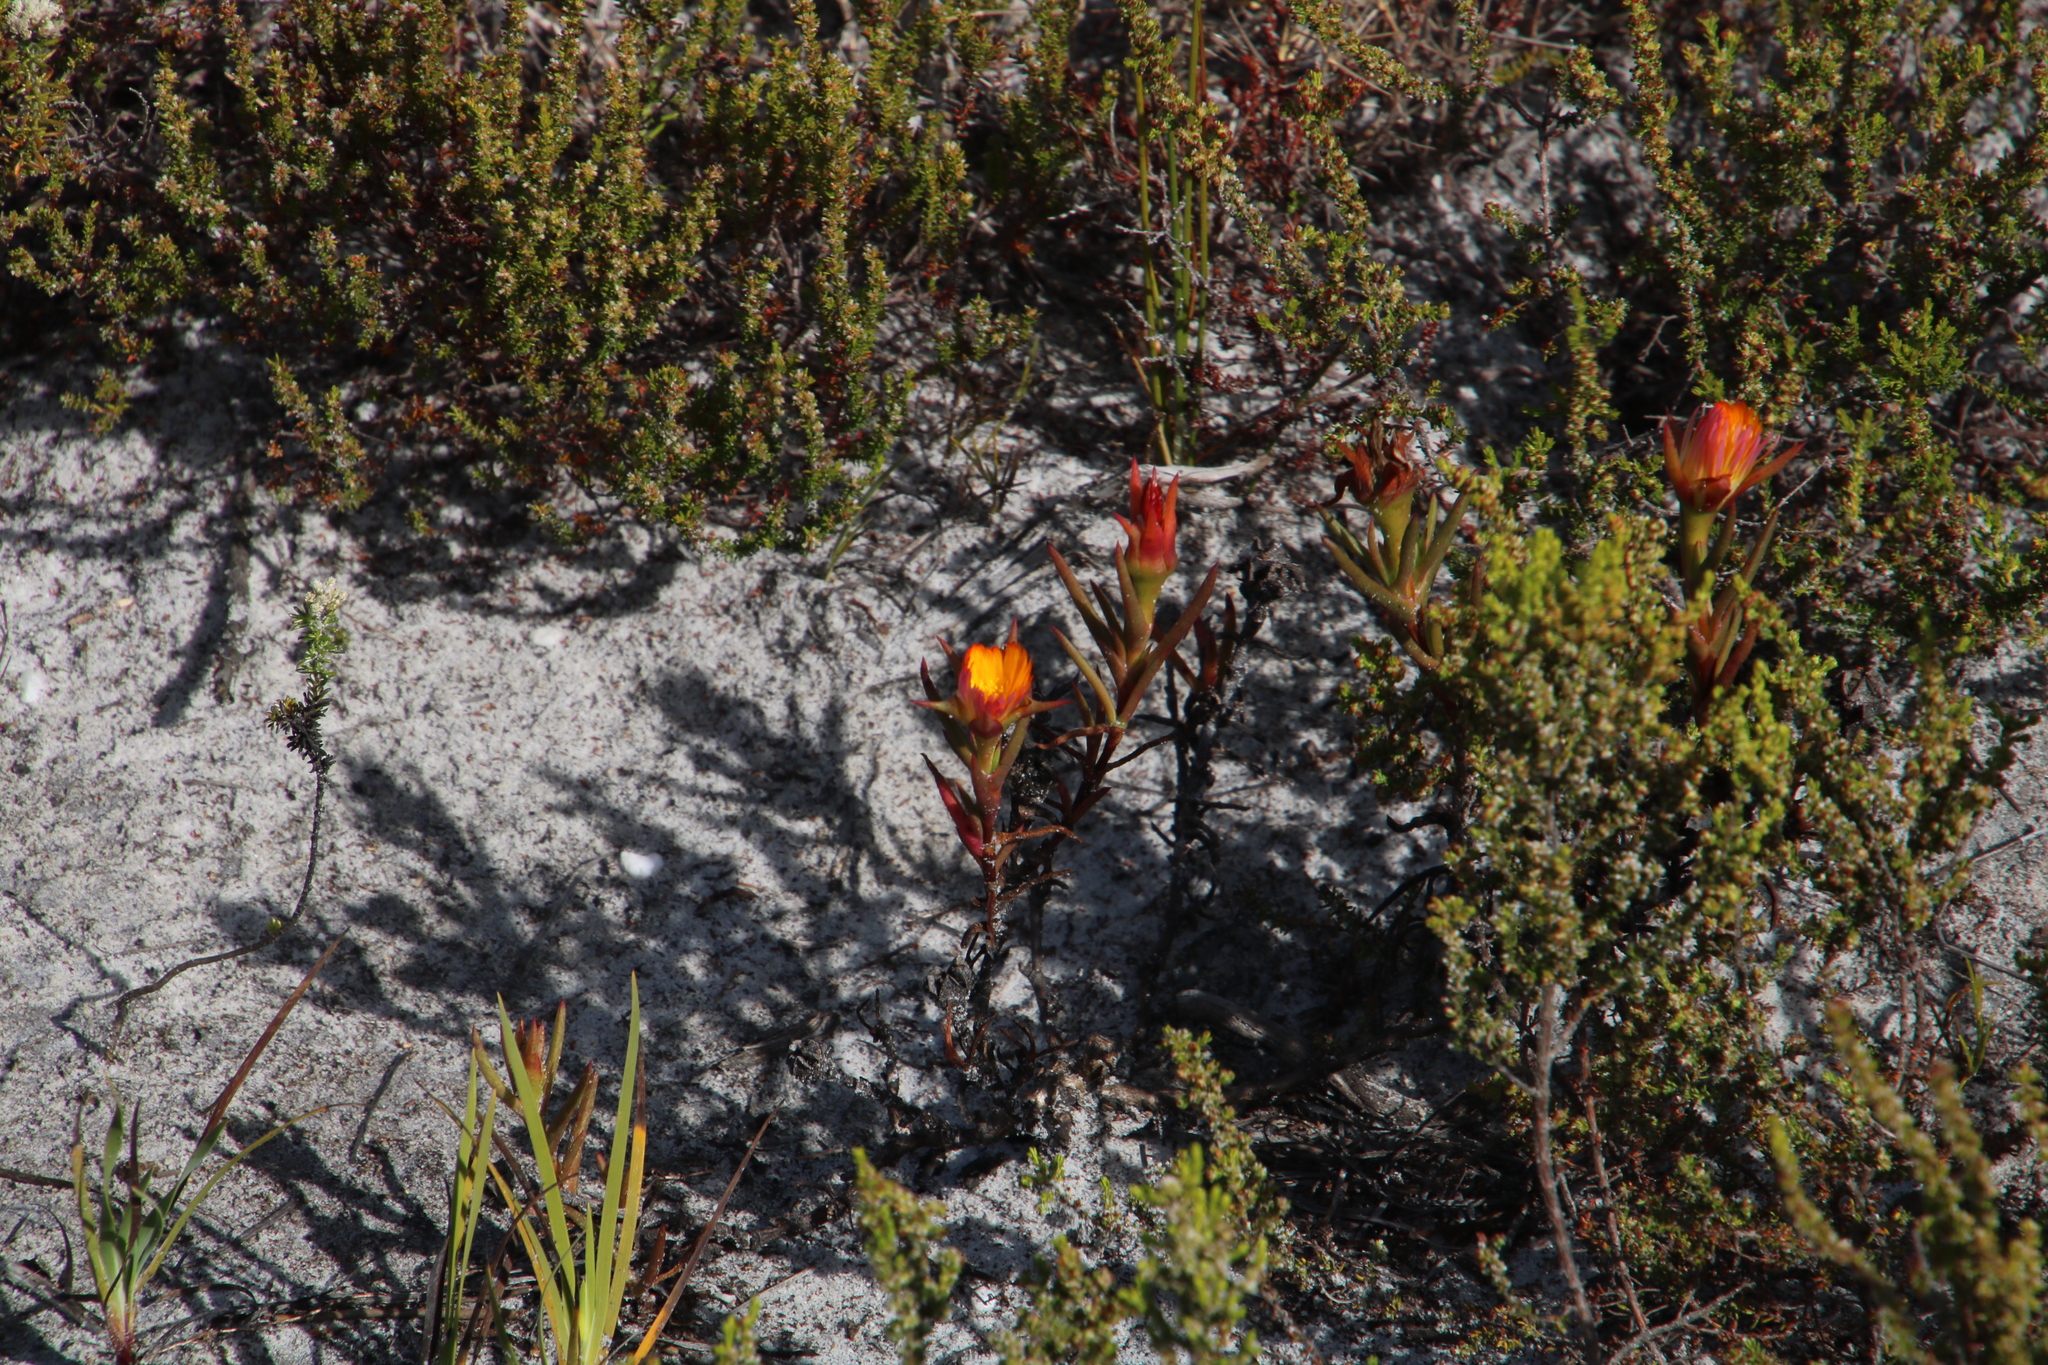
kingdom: Plantae
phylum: Tracheophyta
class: Magnoliopsida
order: Caryophyllales
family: Aizoaceae
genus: Lampranthus
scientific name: Lampranthus bicolor
